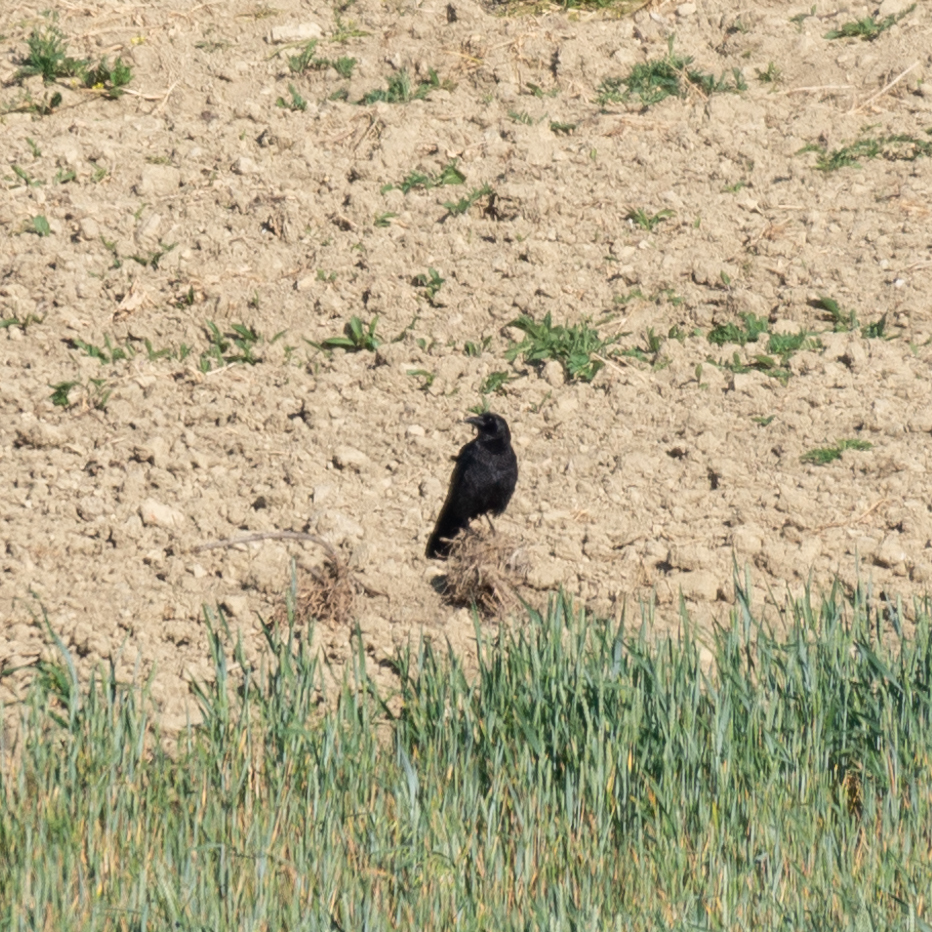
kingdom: Animalia
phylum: Chordata
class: Aves
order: Passeriformes
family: Corvidae
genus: Corvus
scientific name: Corvus corone
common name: Carrion crow
